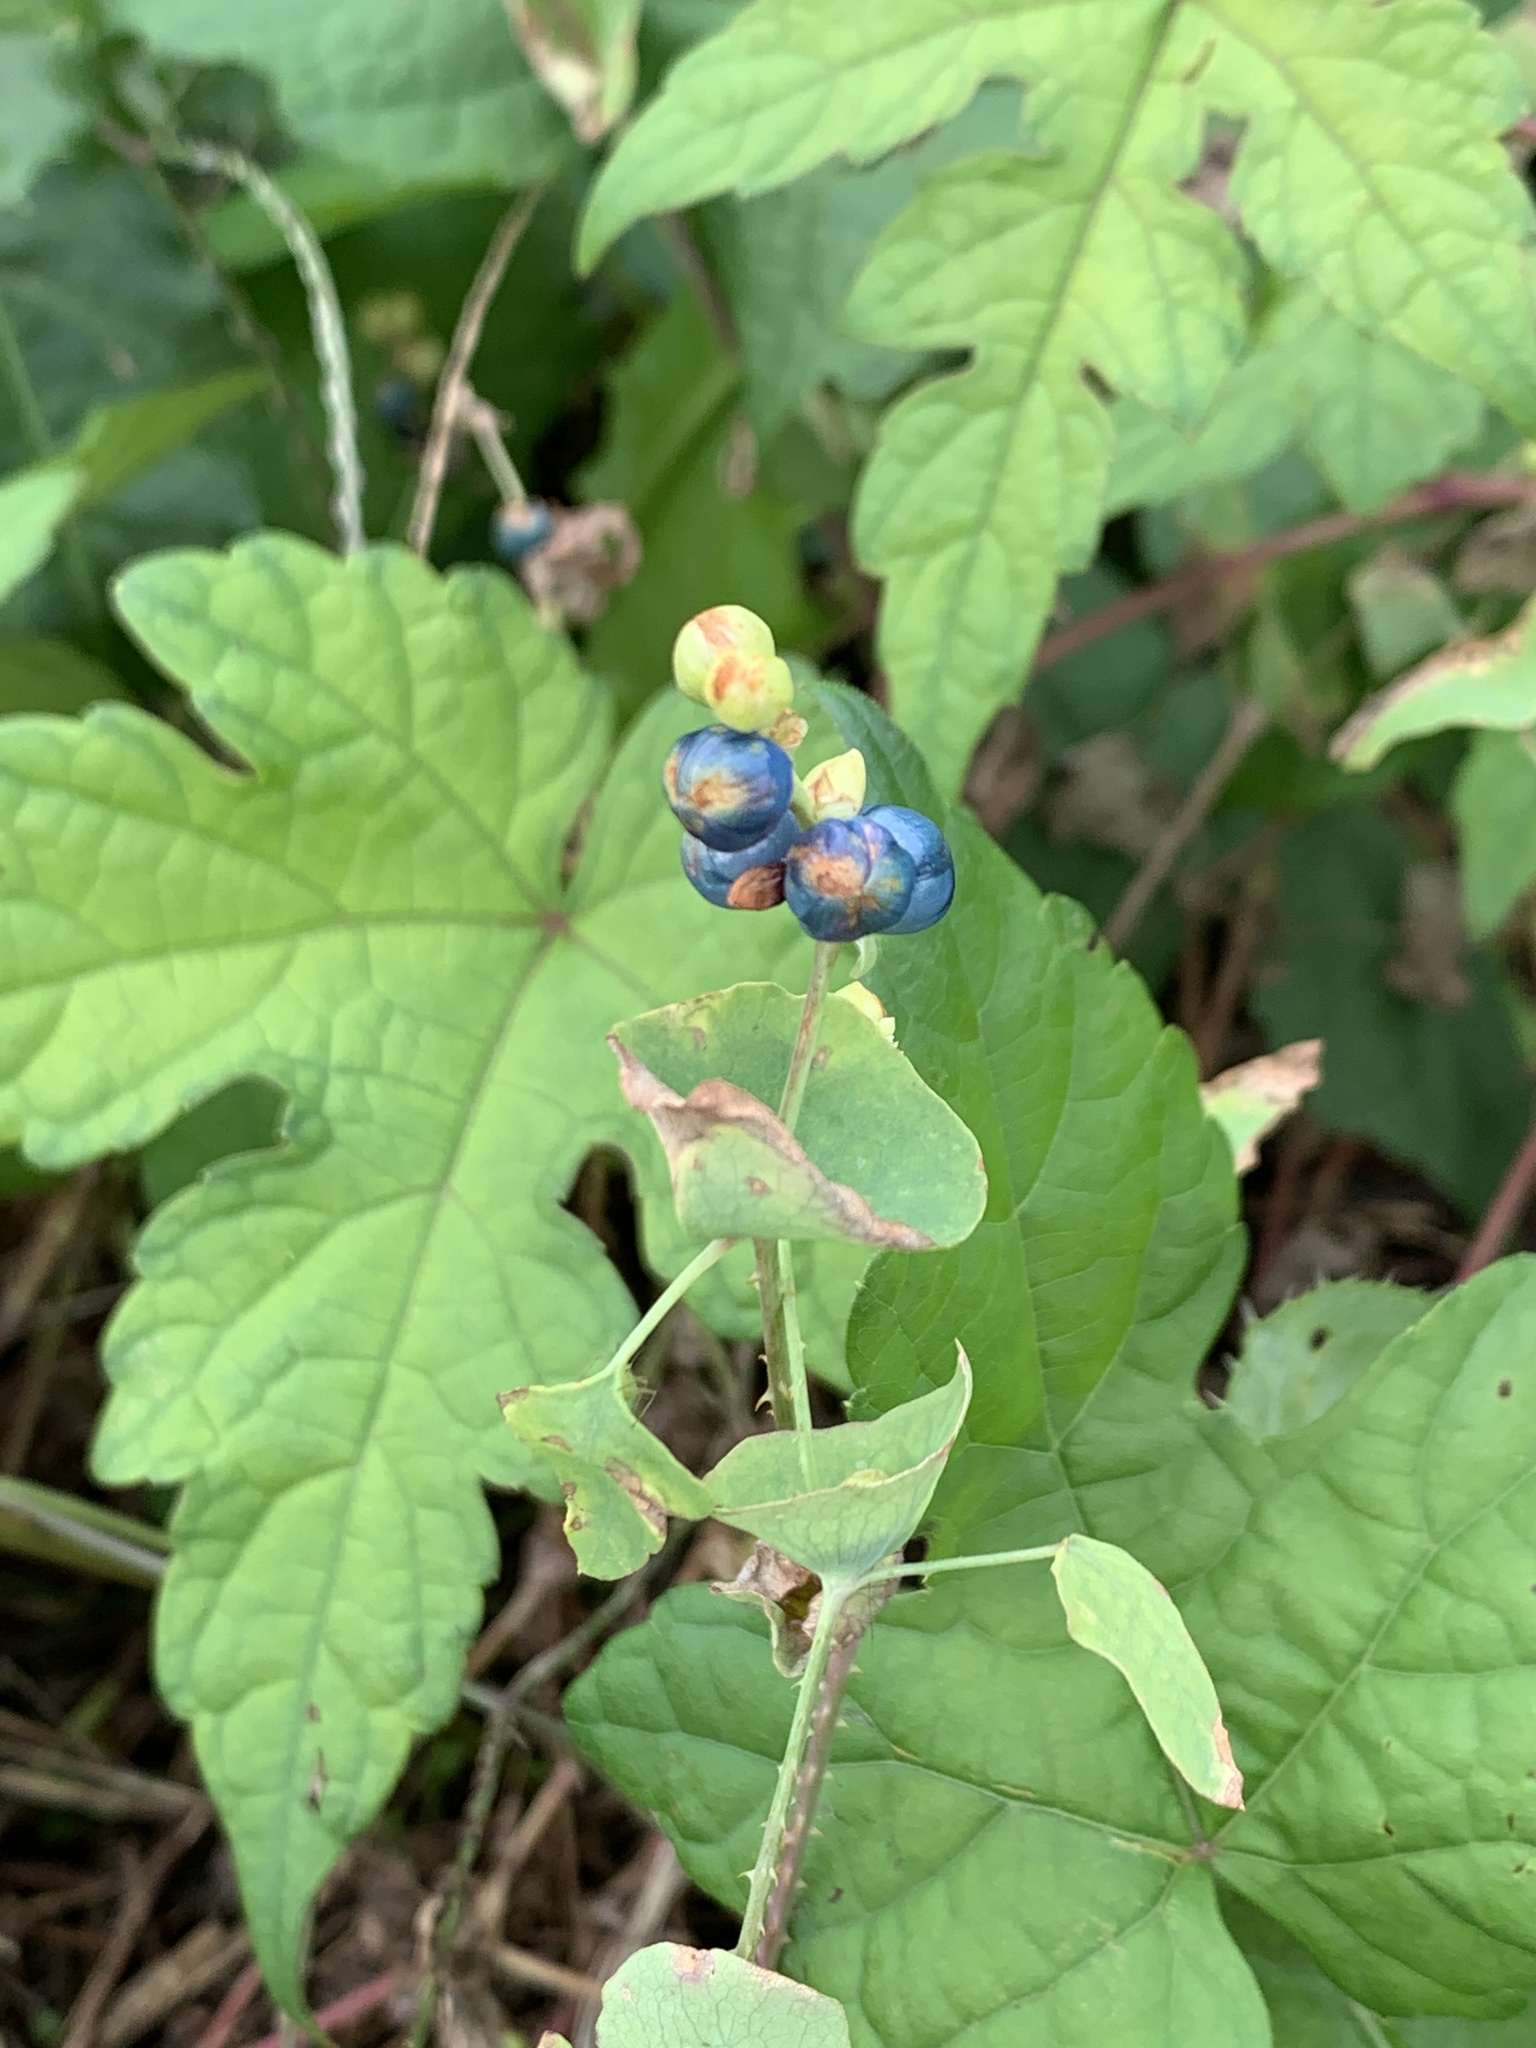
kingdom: Plantae
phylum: Tracheophyta
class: Magnoliopsida
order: Caryophyllales
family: Polygonaceae
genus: Persicaria
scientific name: Persicaria perfoliata
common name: Asiatic tearthumb
